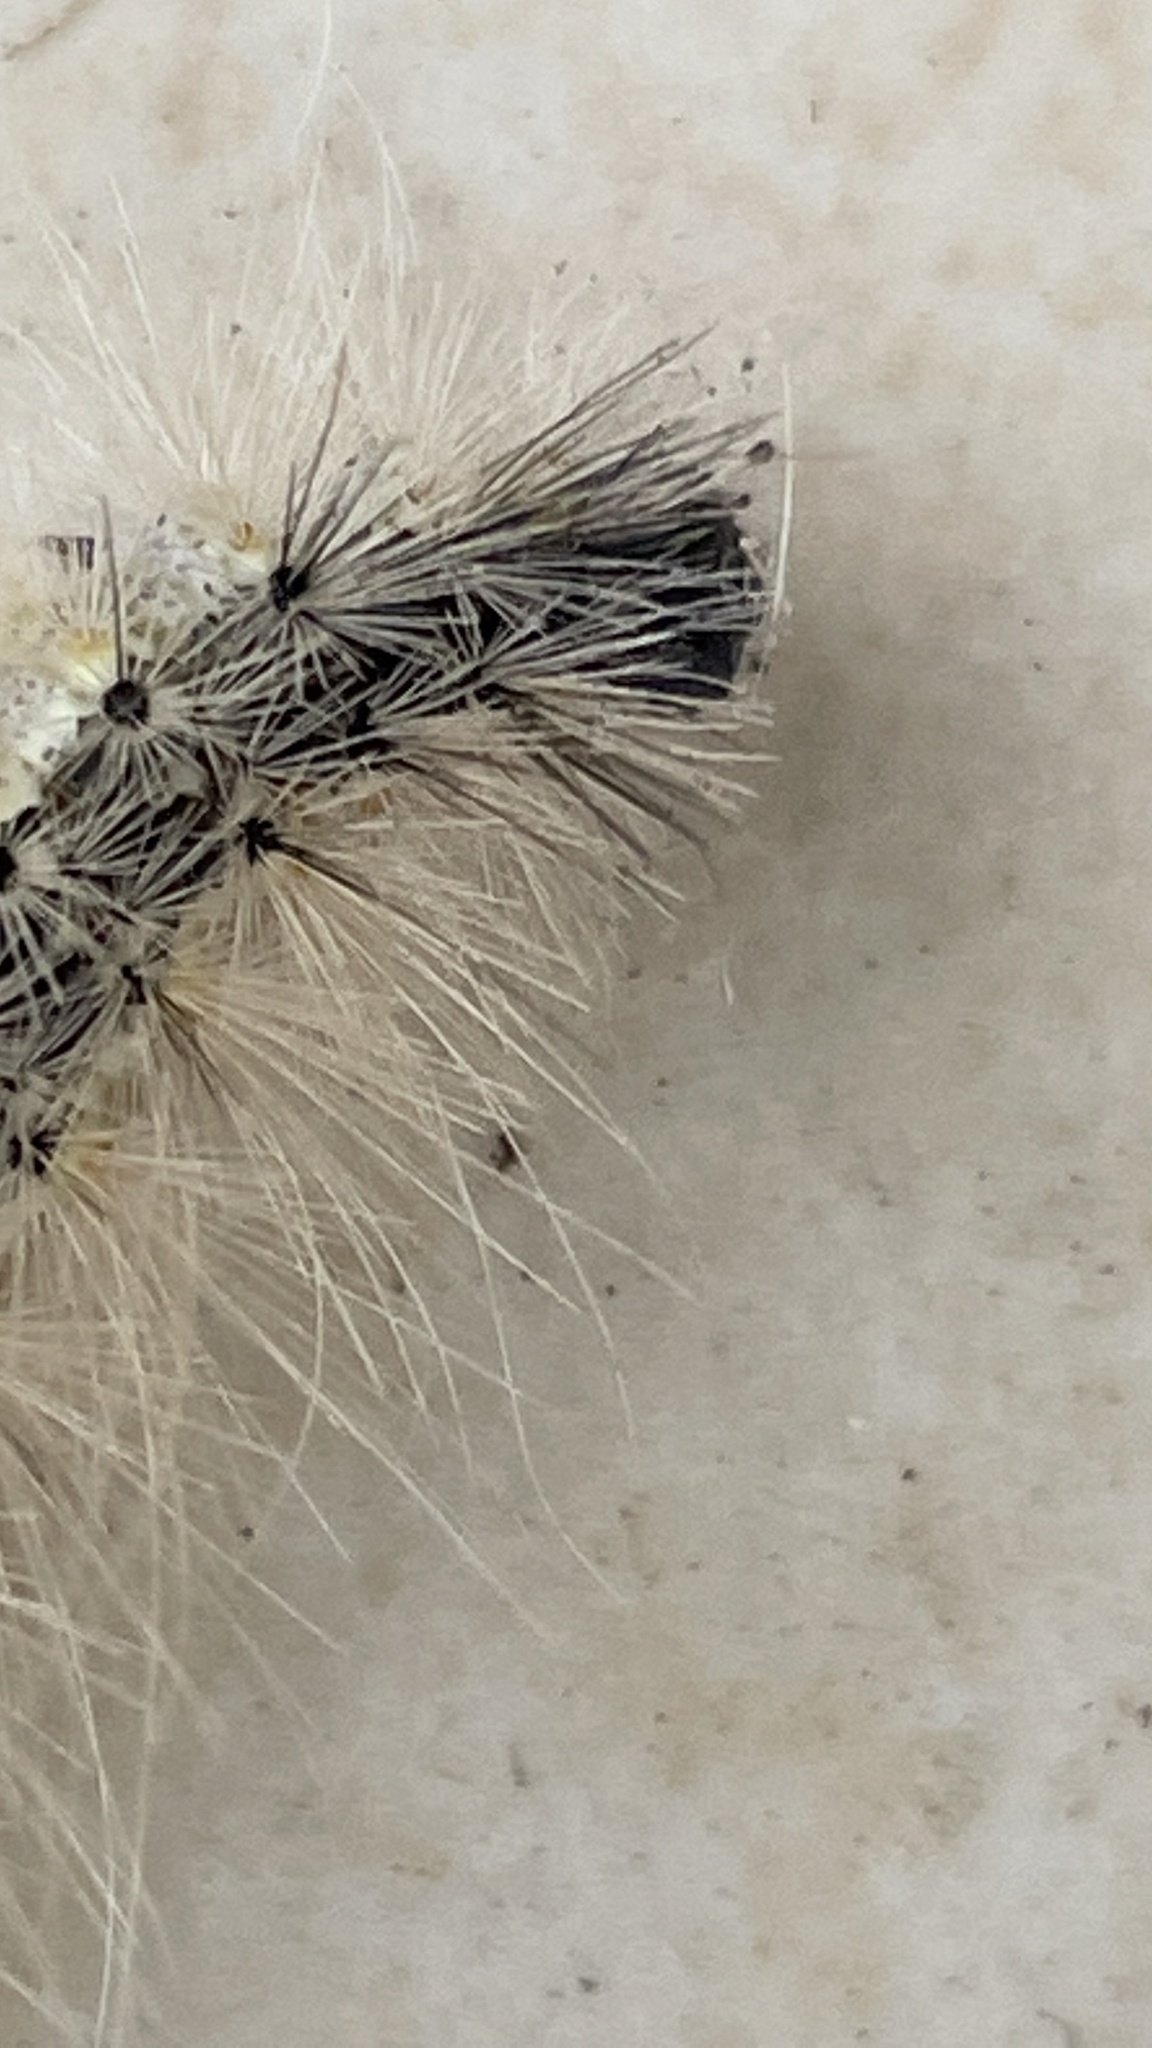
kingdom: Animalia
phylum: Arthropoda
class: Insecta
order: Lepidoptera
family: Erebidae
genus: Hyphantria
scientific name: Hyphantria cunea
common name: American white moth
